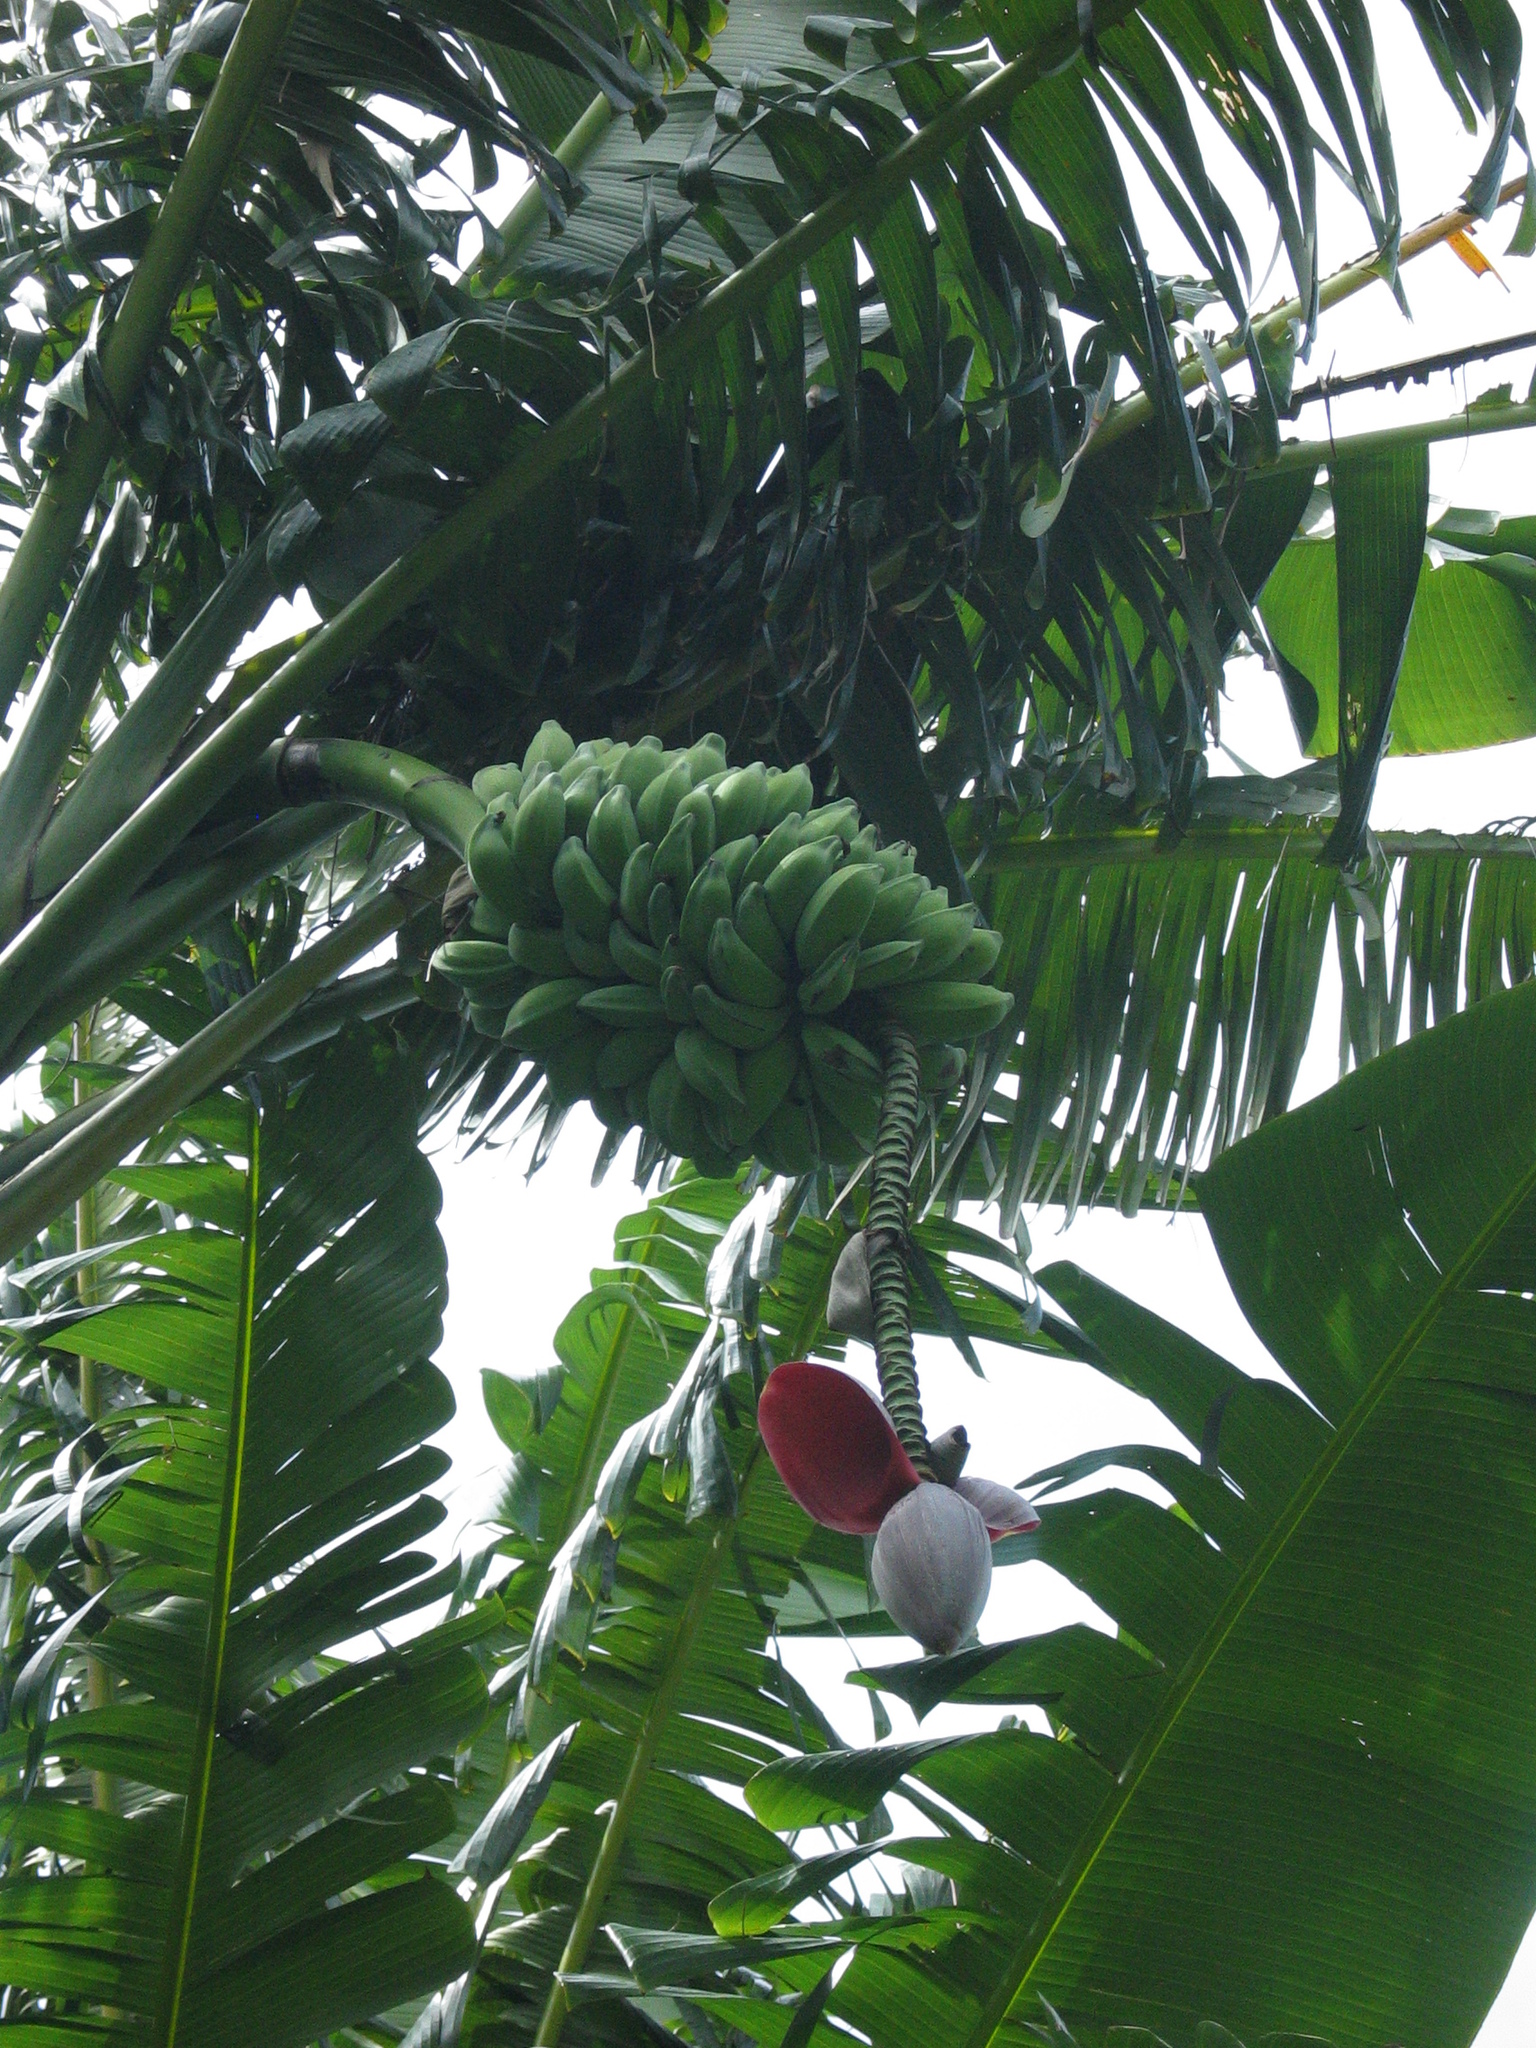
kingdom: Plantae
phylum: Tracheophyta
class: Liliopsida
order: Zingiberales
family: Musaceae
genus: Musa
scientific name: Musa balbisiana
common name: Plantain
